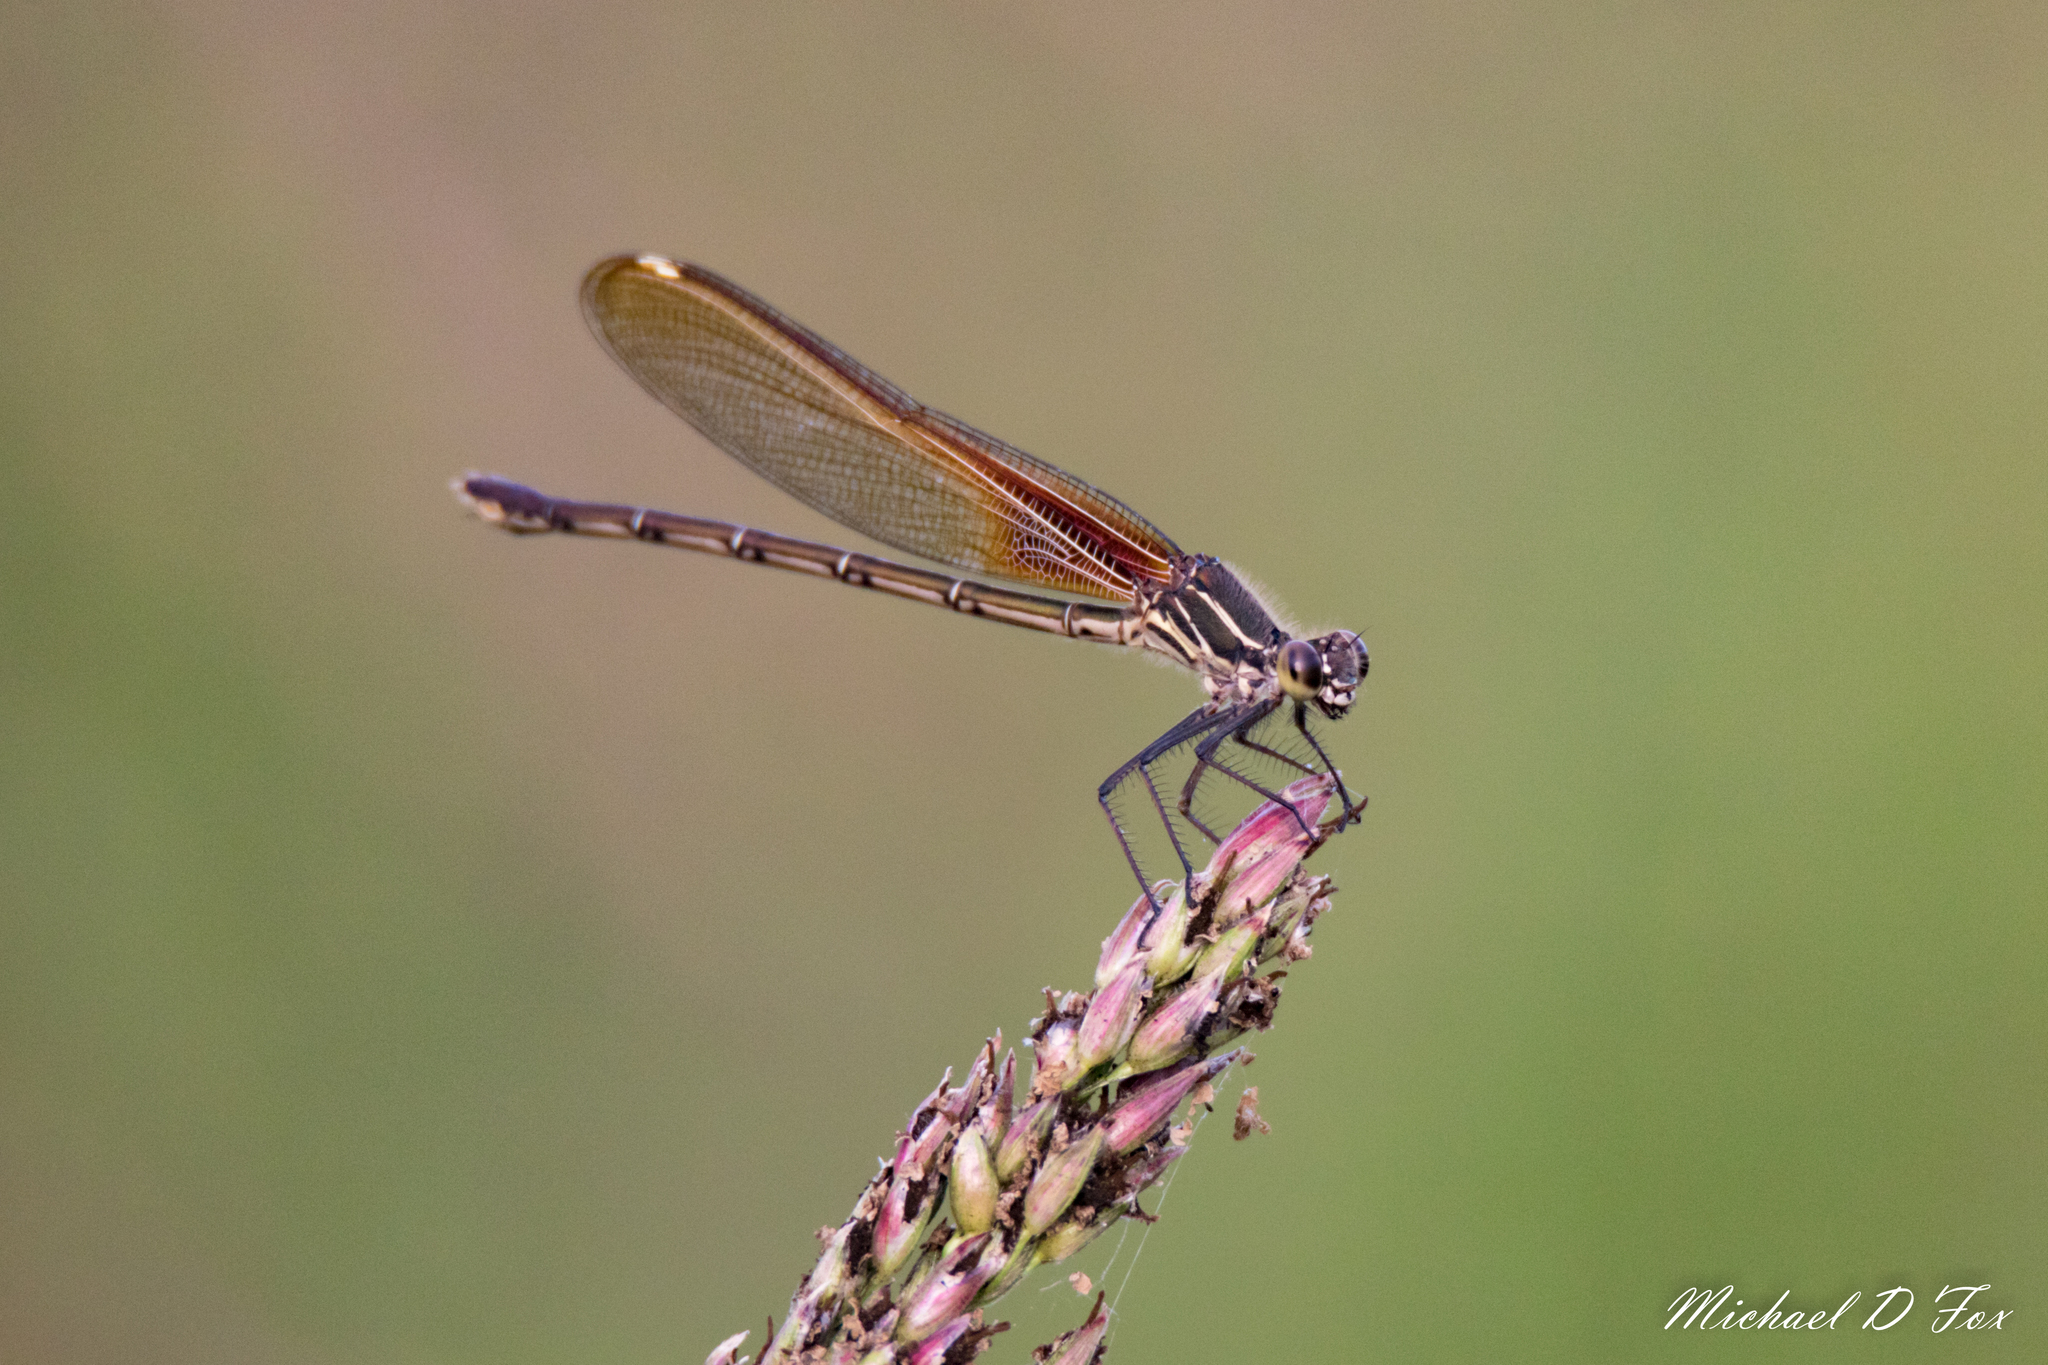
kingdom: Animalia
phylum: Arthropoda
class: Insecta
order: Odonata
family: Calopterygidae
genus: Hetaerina
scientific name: Hetaerina americana
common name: American rubyspot
